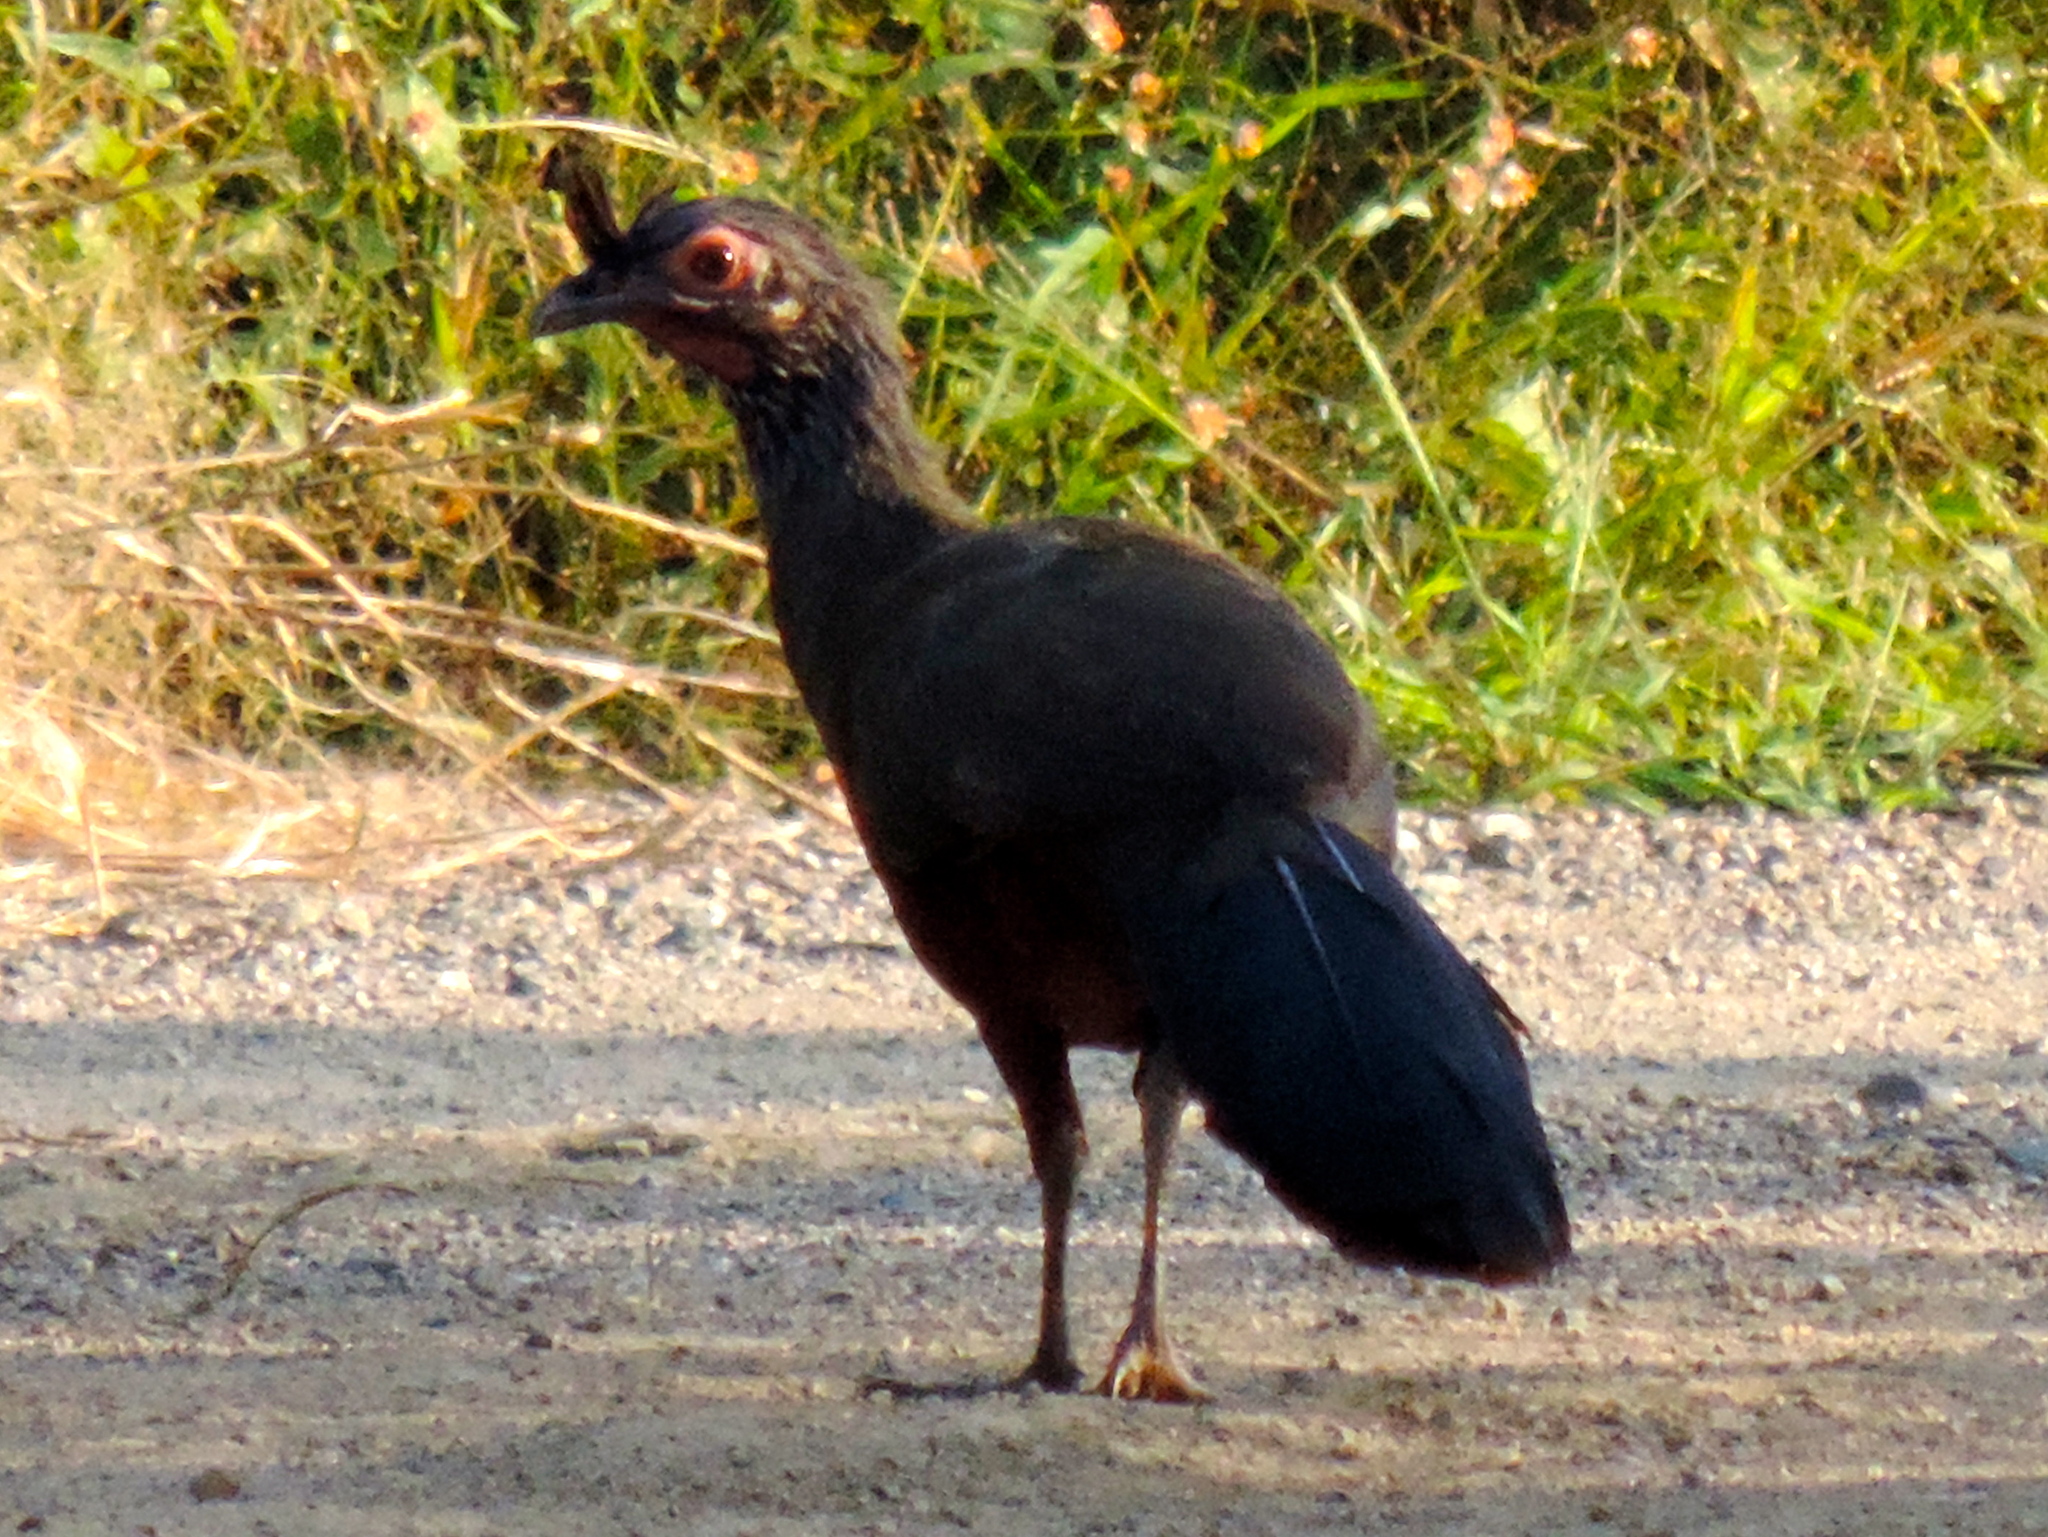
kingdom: Animalia
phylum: Chordata
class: Aves
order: Galliformes
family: Cracidae
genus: Ortalis
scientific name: Ortalis wagleri
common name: Rufous-bellied chachalaca
